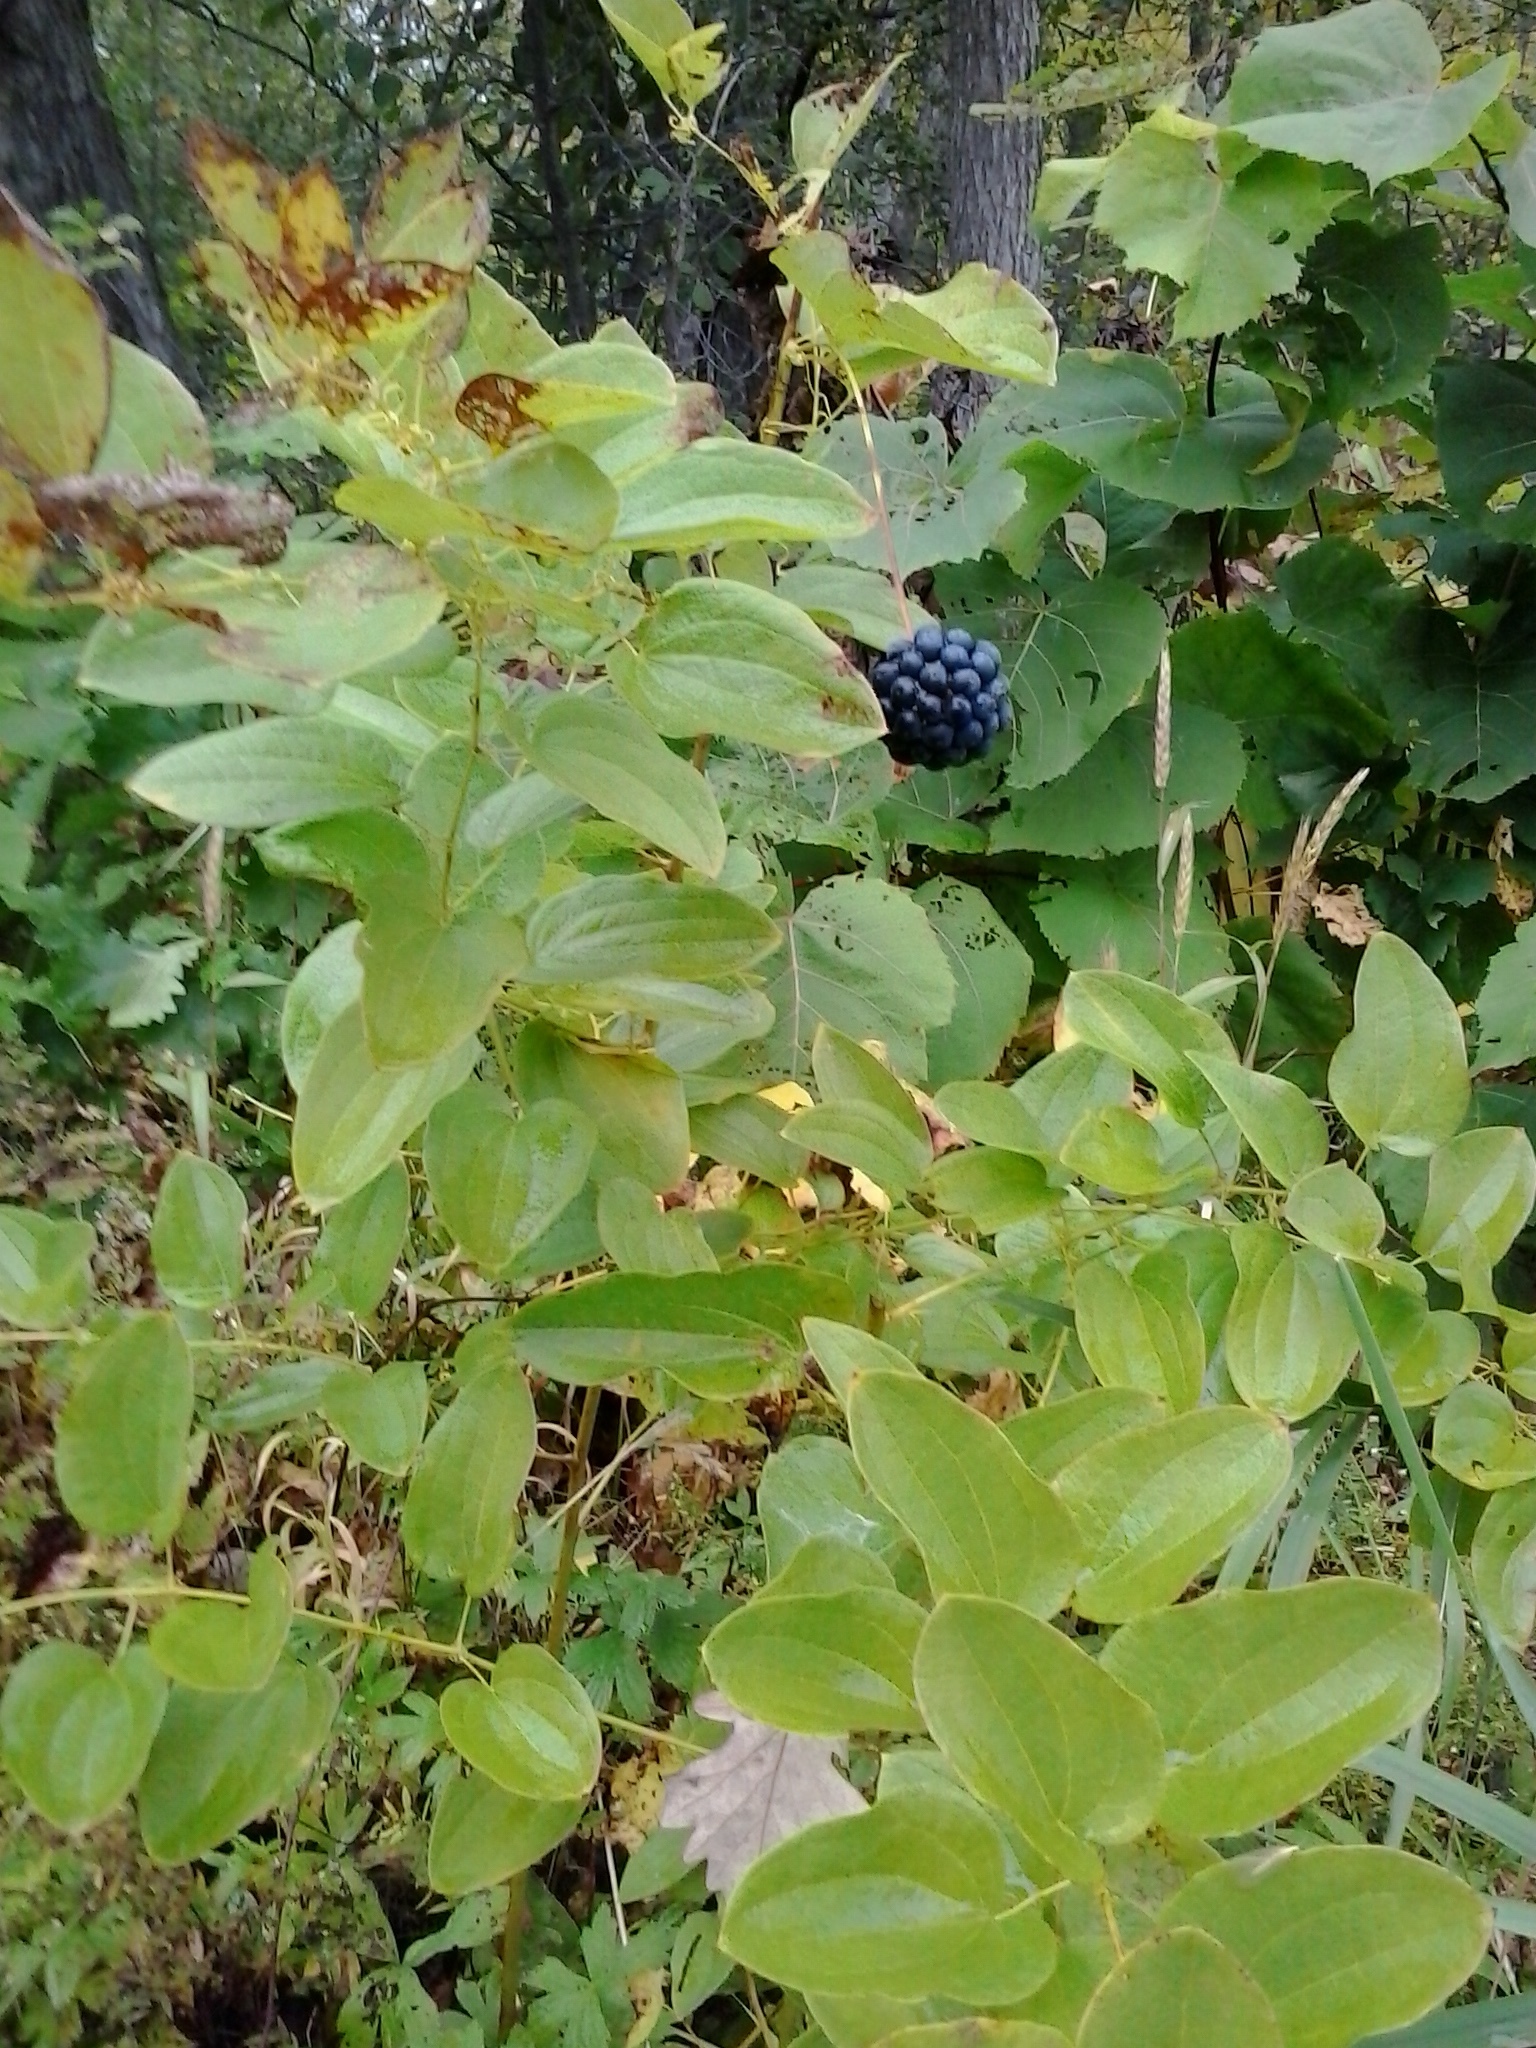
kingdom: Plantae
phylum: Tracheophyta
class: Liliopsida
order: Liliales
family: Smilacaceae
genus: Smilax
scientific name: Smilax herbacea
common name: Jacob's-ladder
